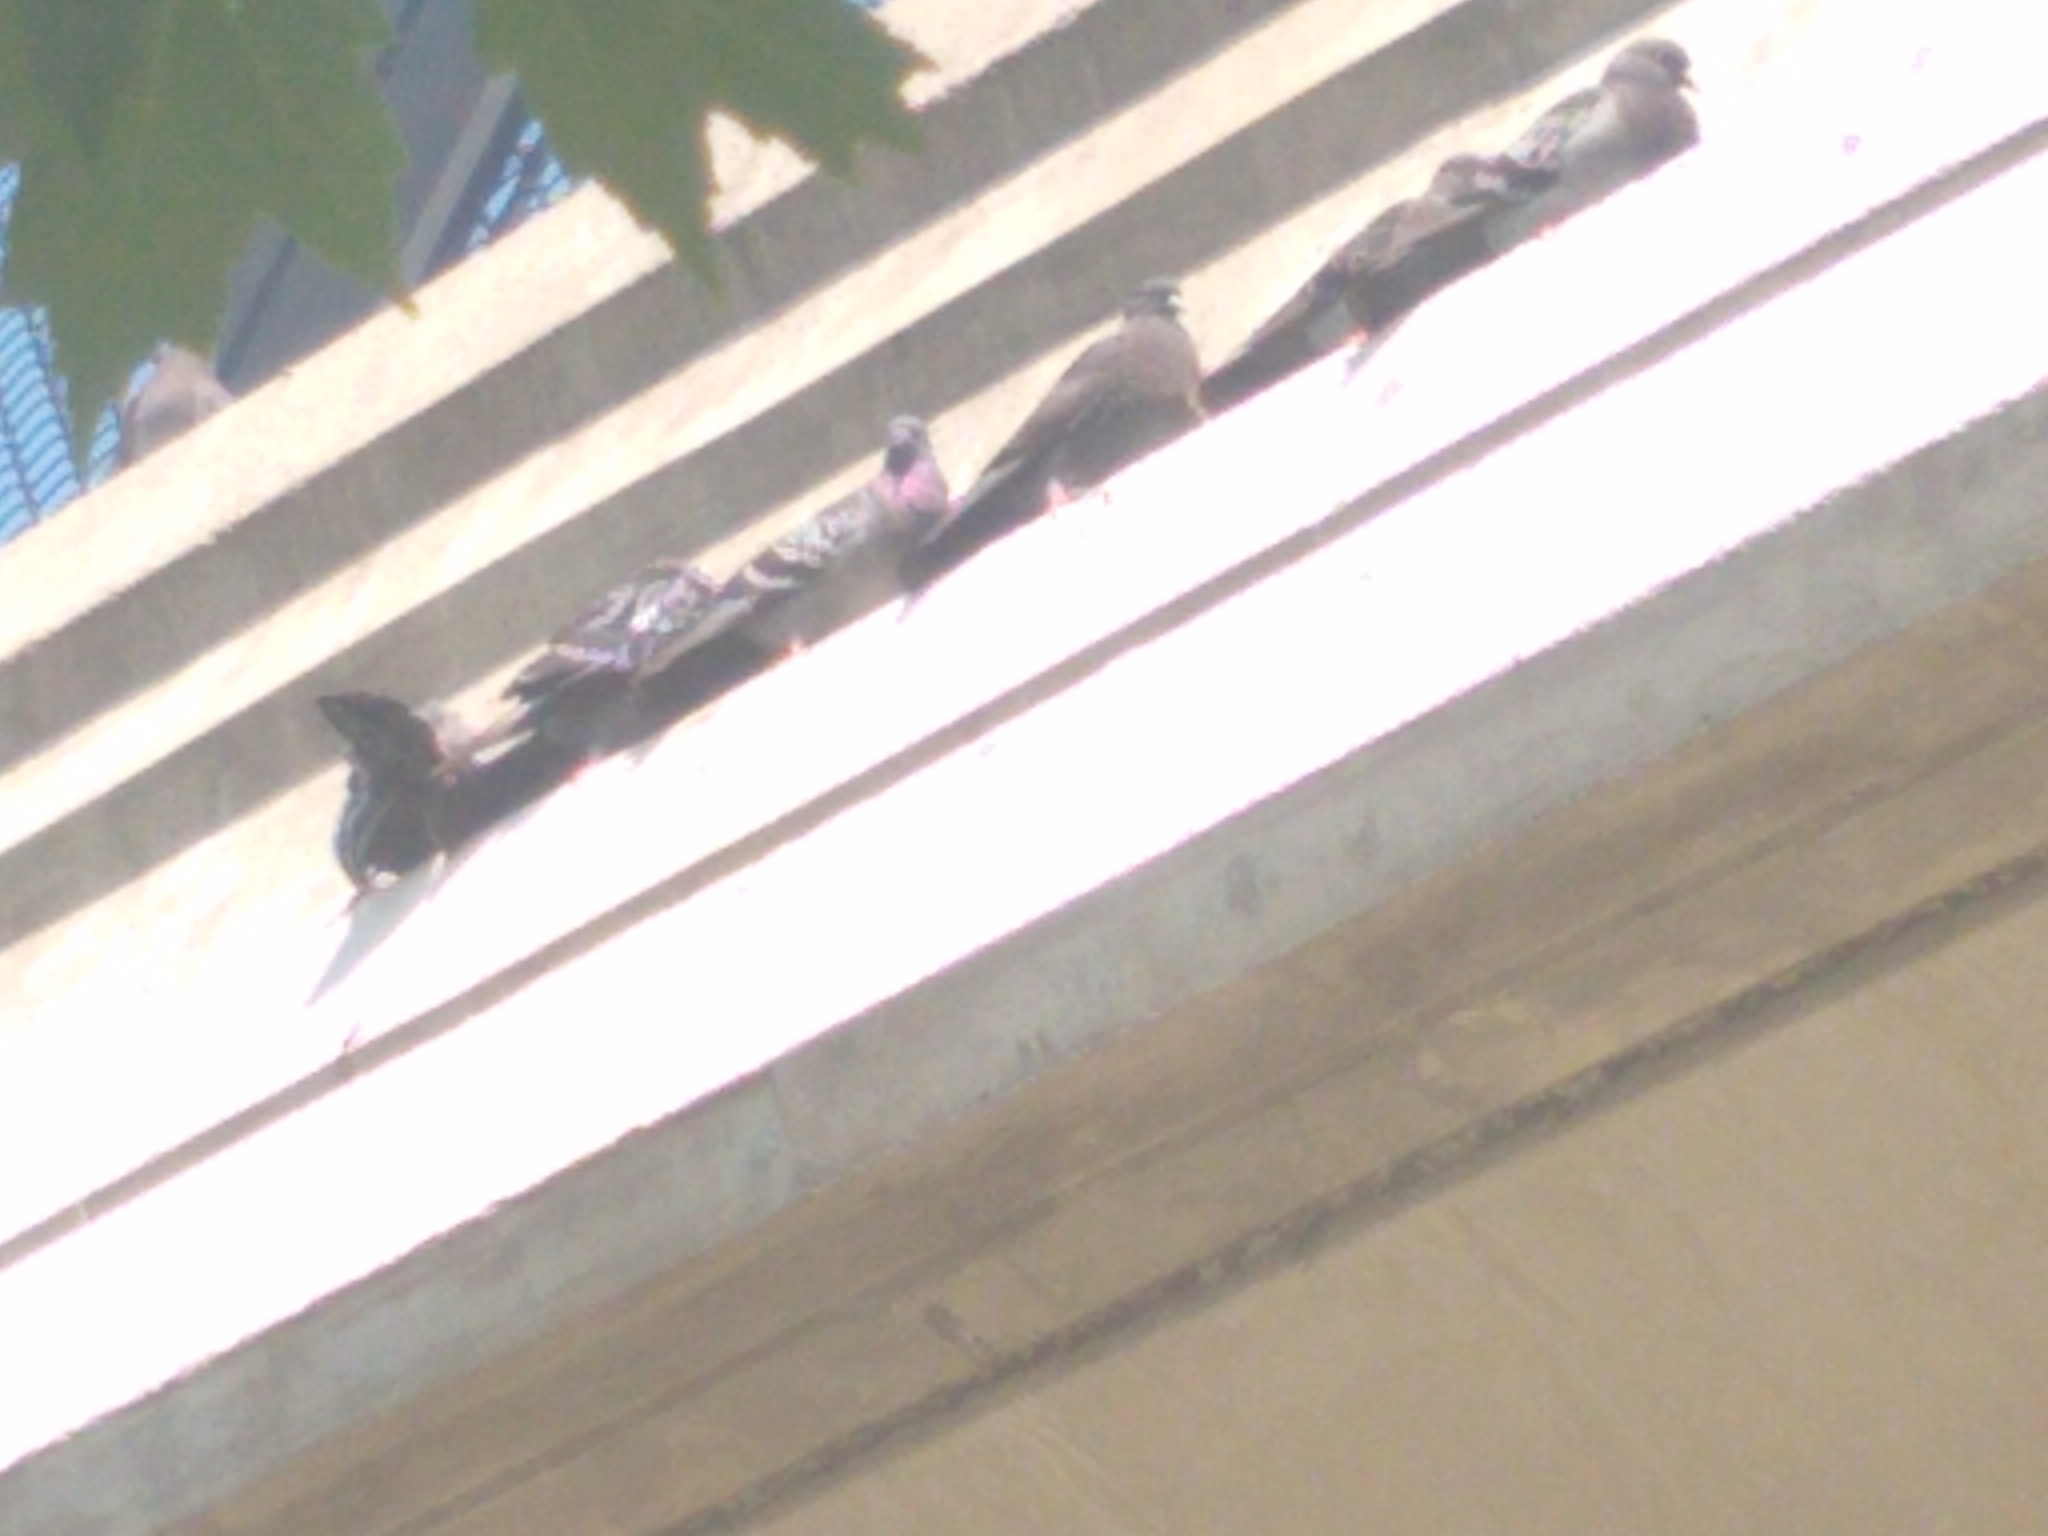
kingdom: Animalia
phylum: Chordata
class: Aves
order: Columbiformes
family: Columbidae
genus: Columba
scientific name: Columba livia
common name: Rock pigeon
